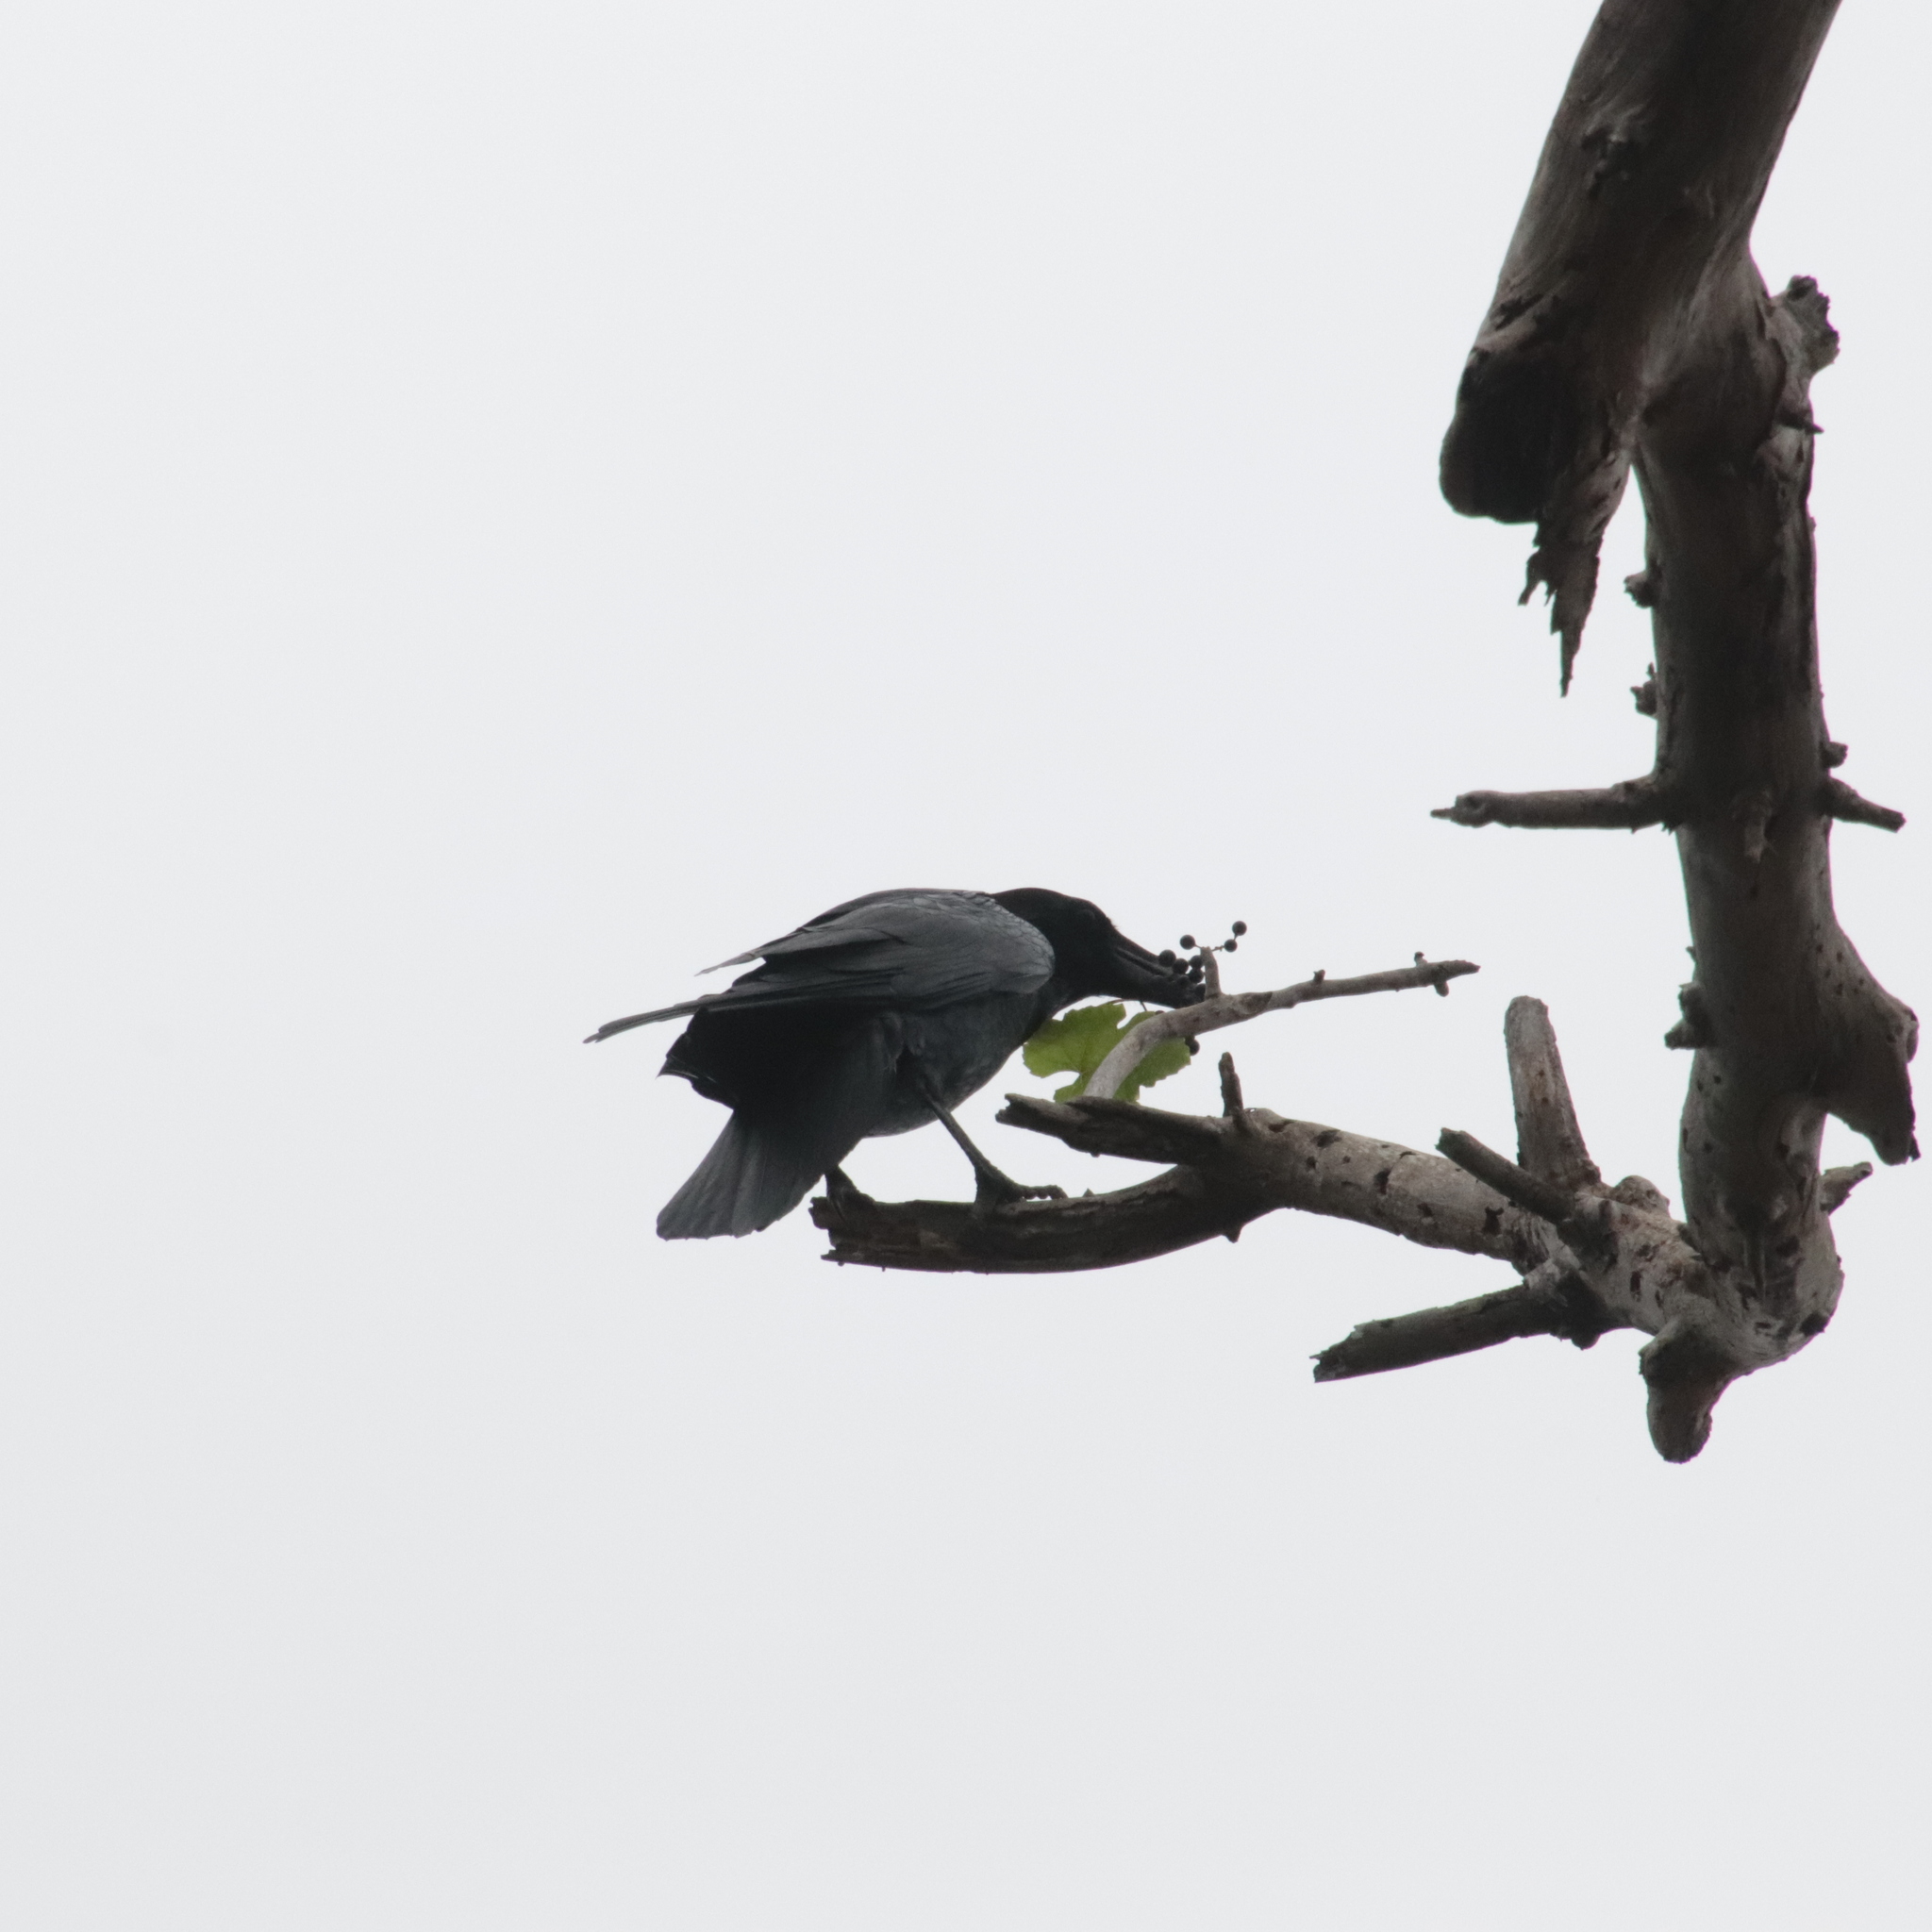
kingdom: Animalia
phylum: Chordata
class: Aves
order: Passeriformes
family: Corvidae
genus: Corvus
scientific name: Corvus corax
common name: Common raven
